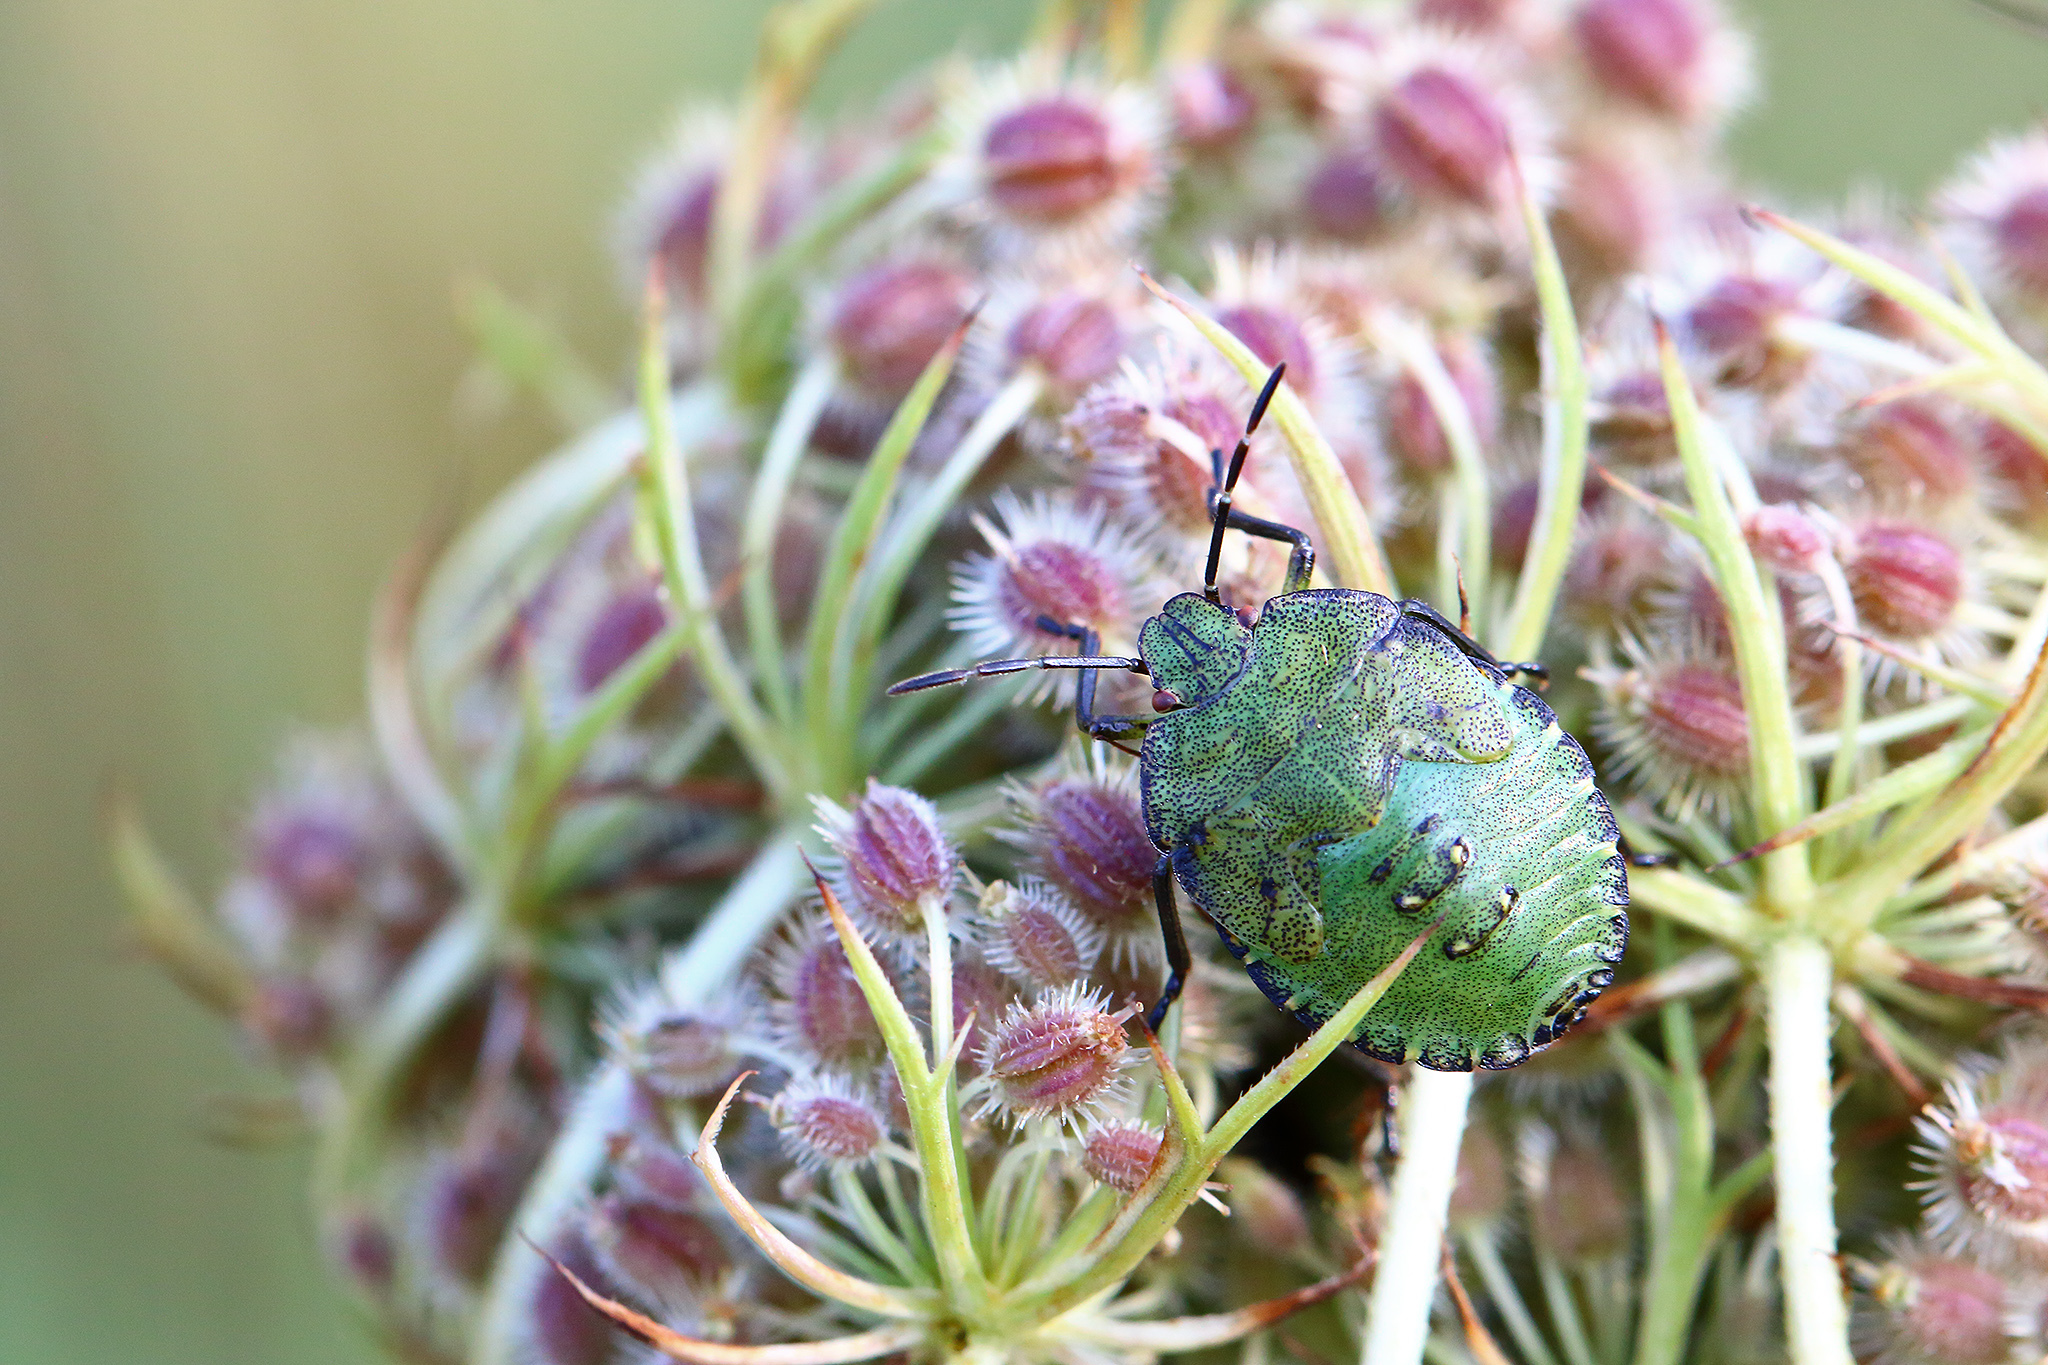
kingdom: Animalia
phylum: Arthropoda
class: Insecta
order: Hemiptera
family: Pentatomidae
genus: Palomena
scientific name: Palomena prasina
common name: Green shieldbug
